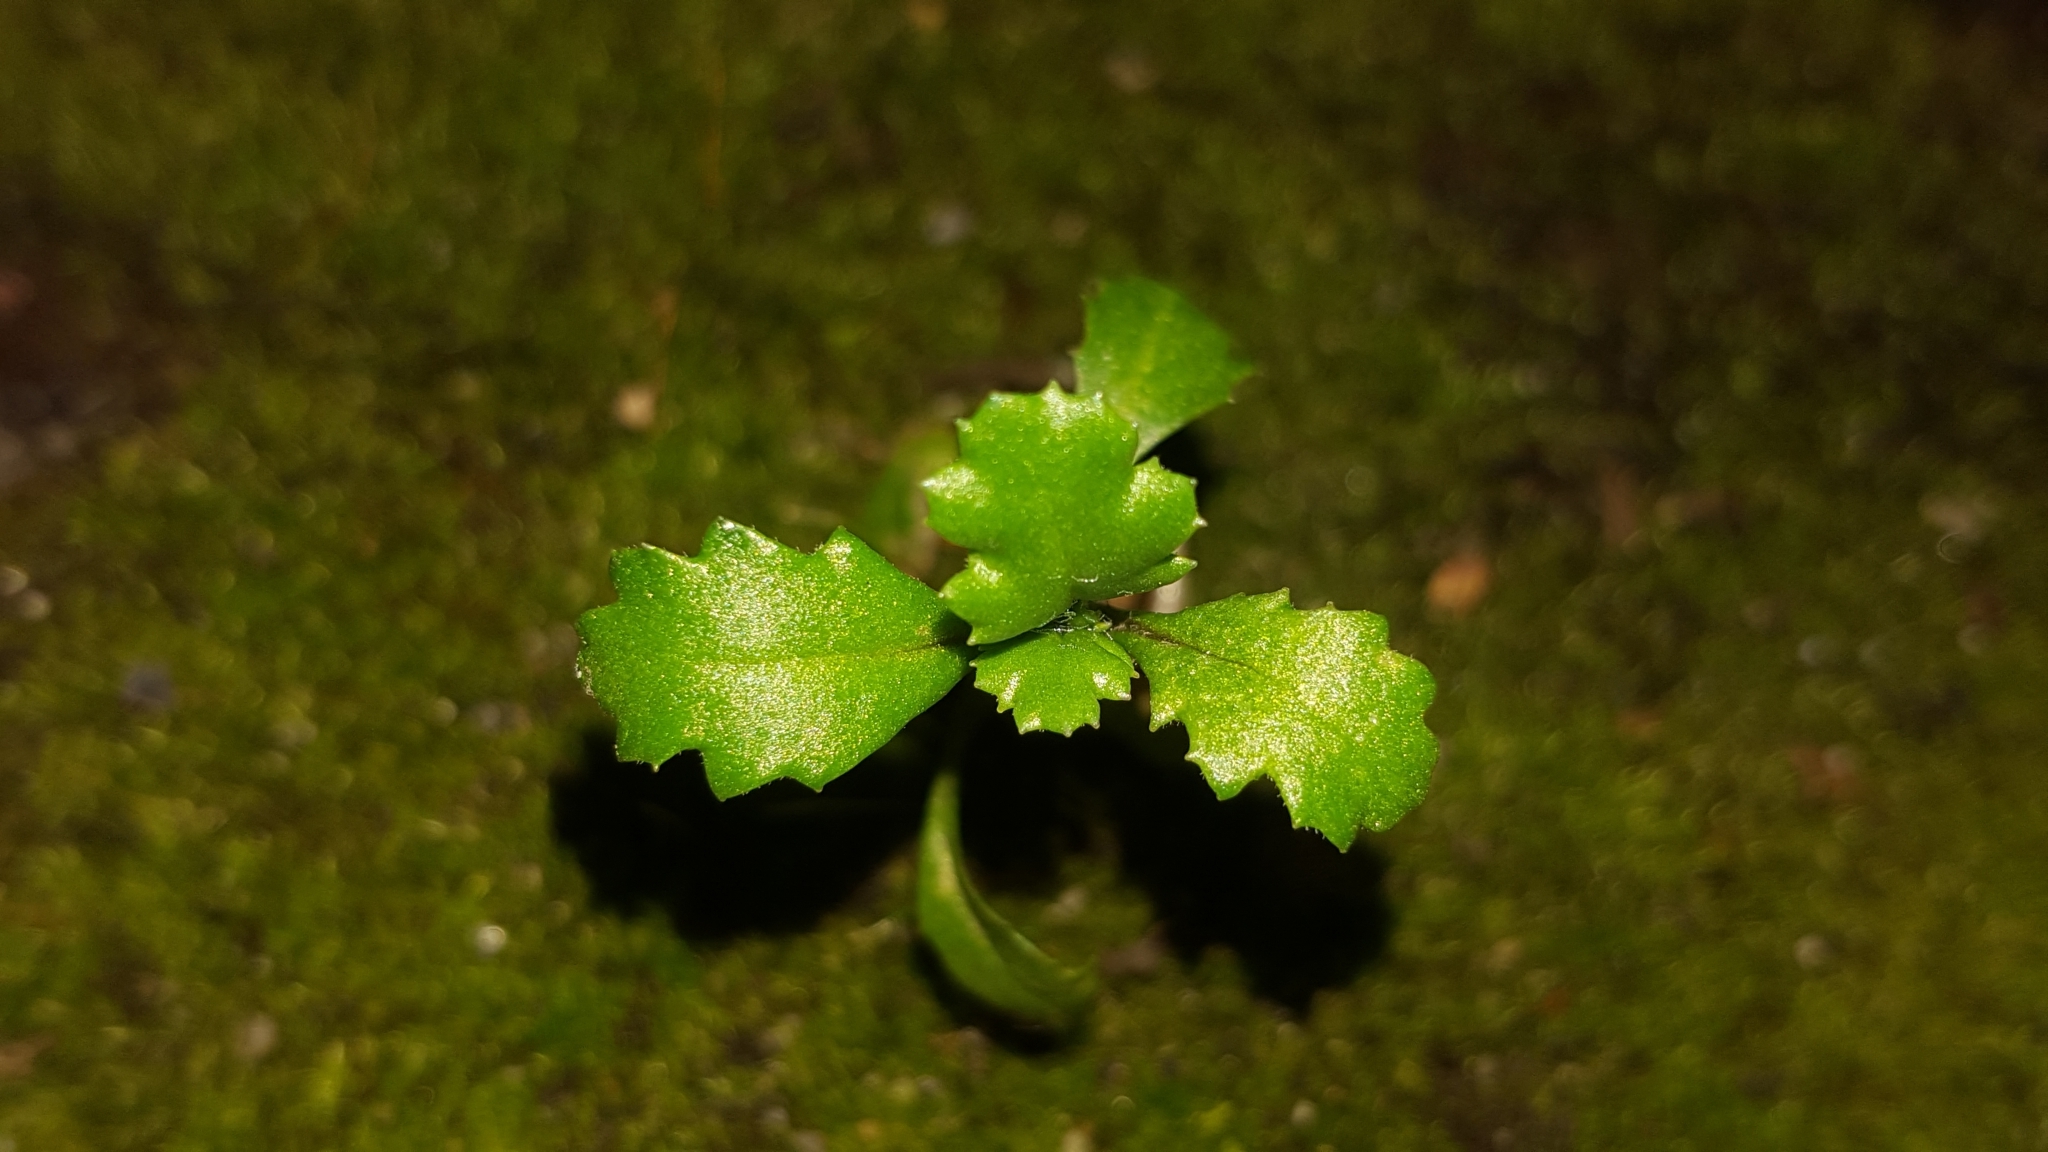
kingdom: Plantae
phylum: Tracheophyta
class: Magnoliopsida
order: Asterales
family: Asteraceae
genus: Senecio
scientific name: Senecio vulgaris
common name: Old-man-in-the-spring
